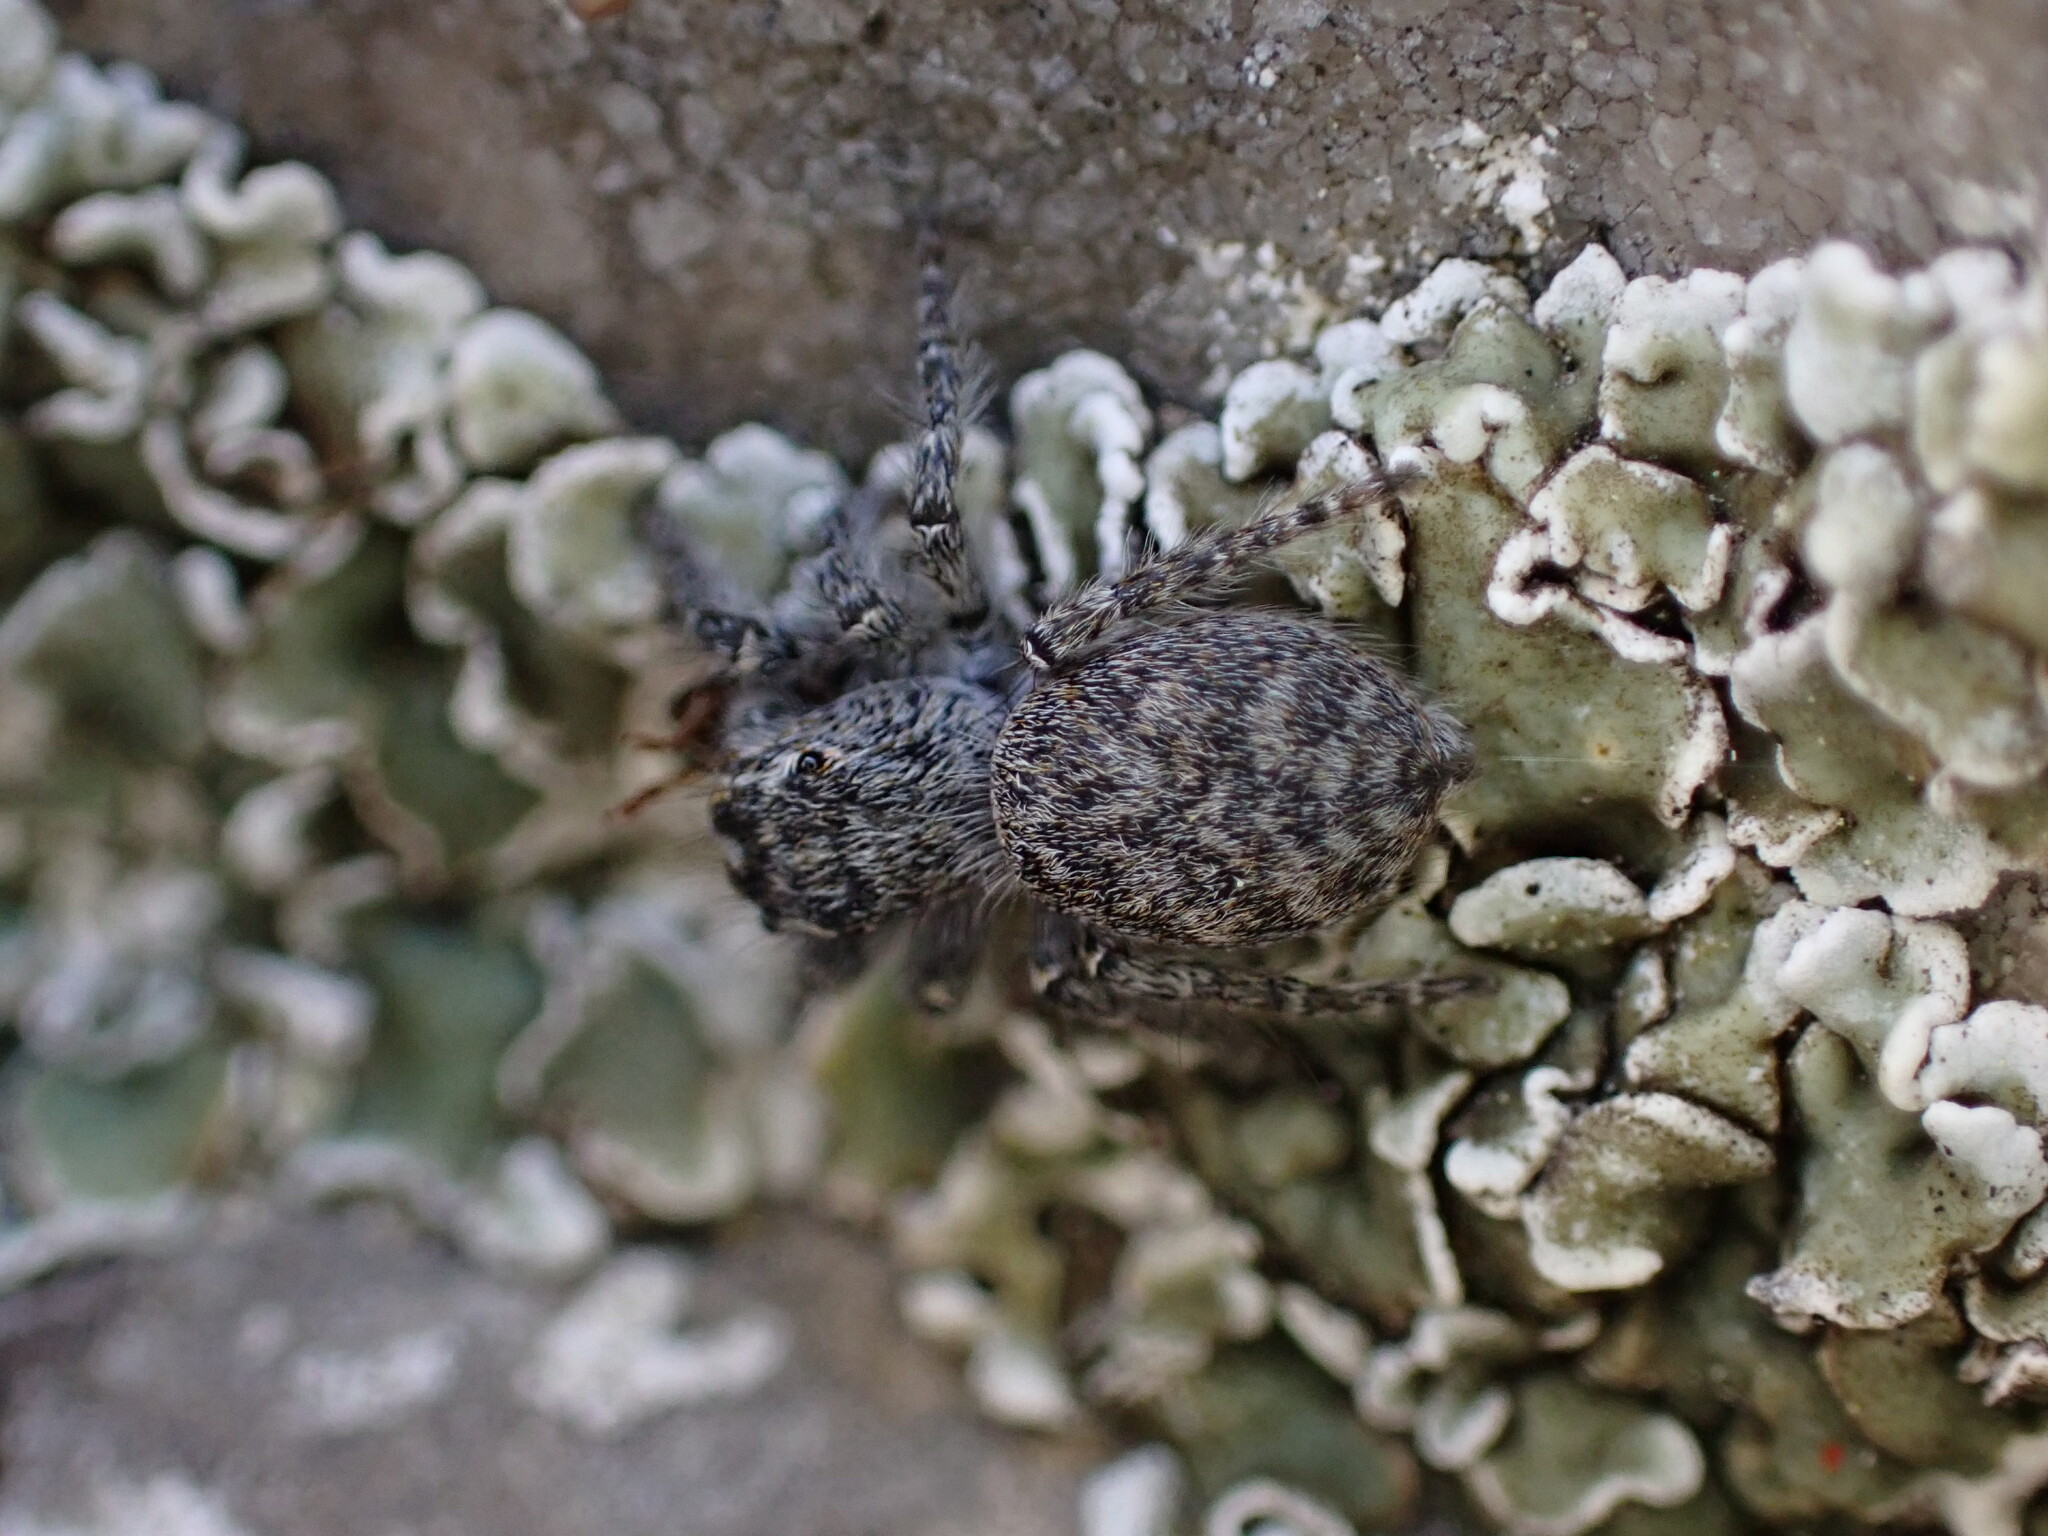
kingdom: Animalia
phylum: Arthropoda
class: Arachnida
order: Araneae
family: Salticidae
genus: Philaeus
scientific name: Philaeus chrysops
